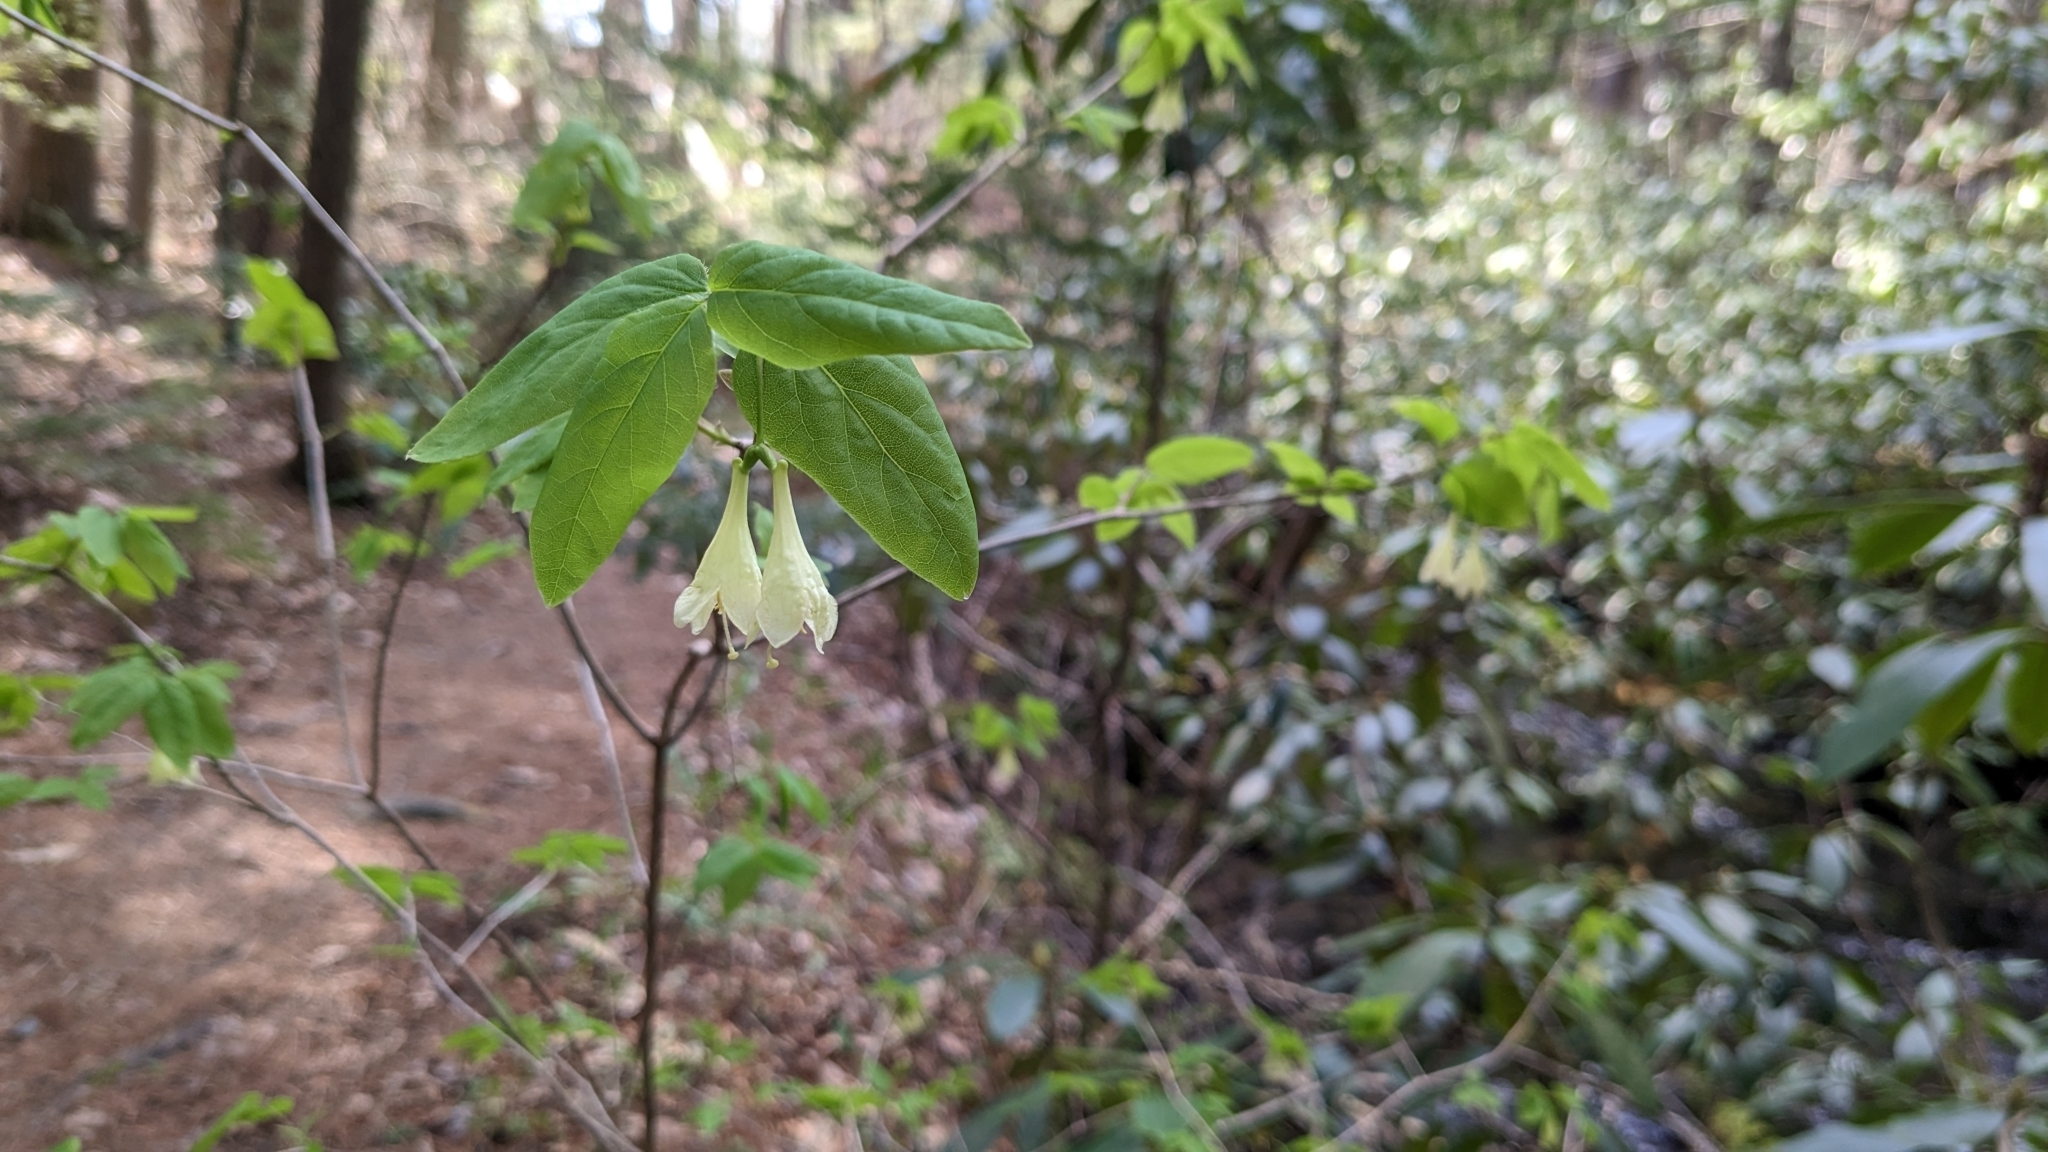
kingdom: Plantae
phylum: Tracheophyta
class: Magnoliopsida
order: Dipsacales
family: Caprifoliaceae
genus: Lonicera
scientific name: Lonicera canadensis
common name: American fly-honeysuckle
